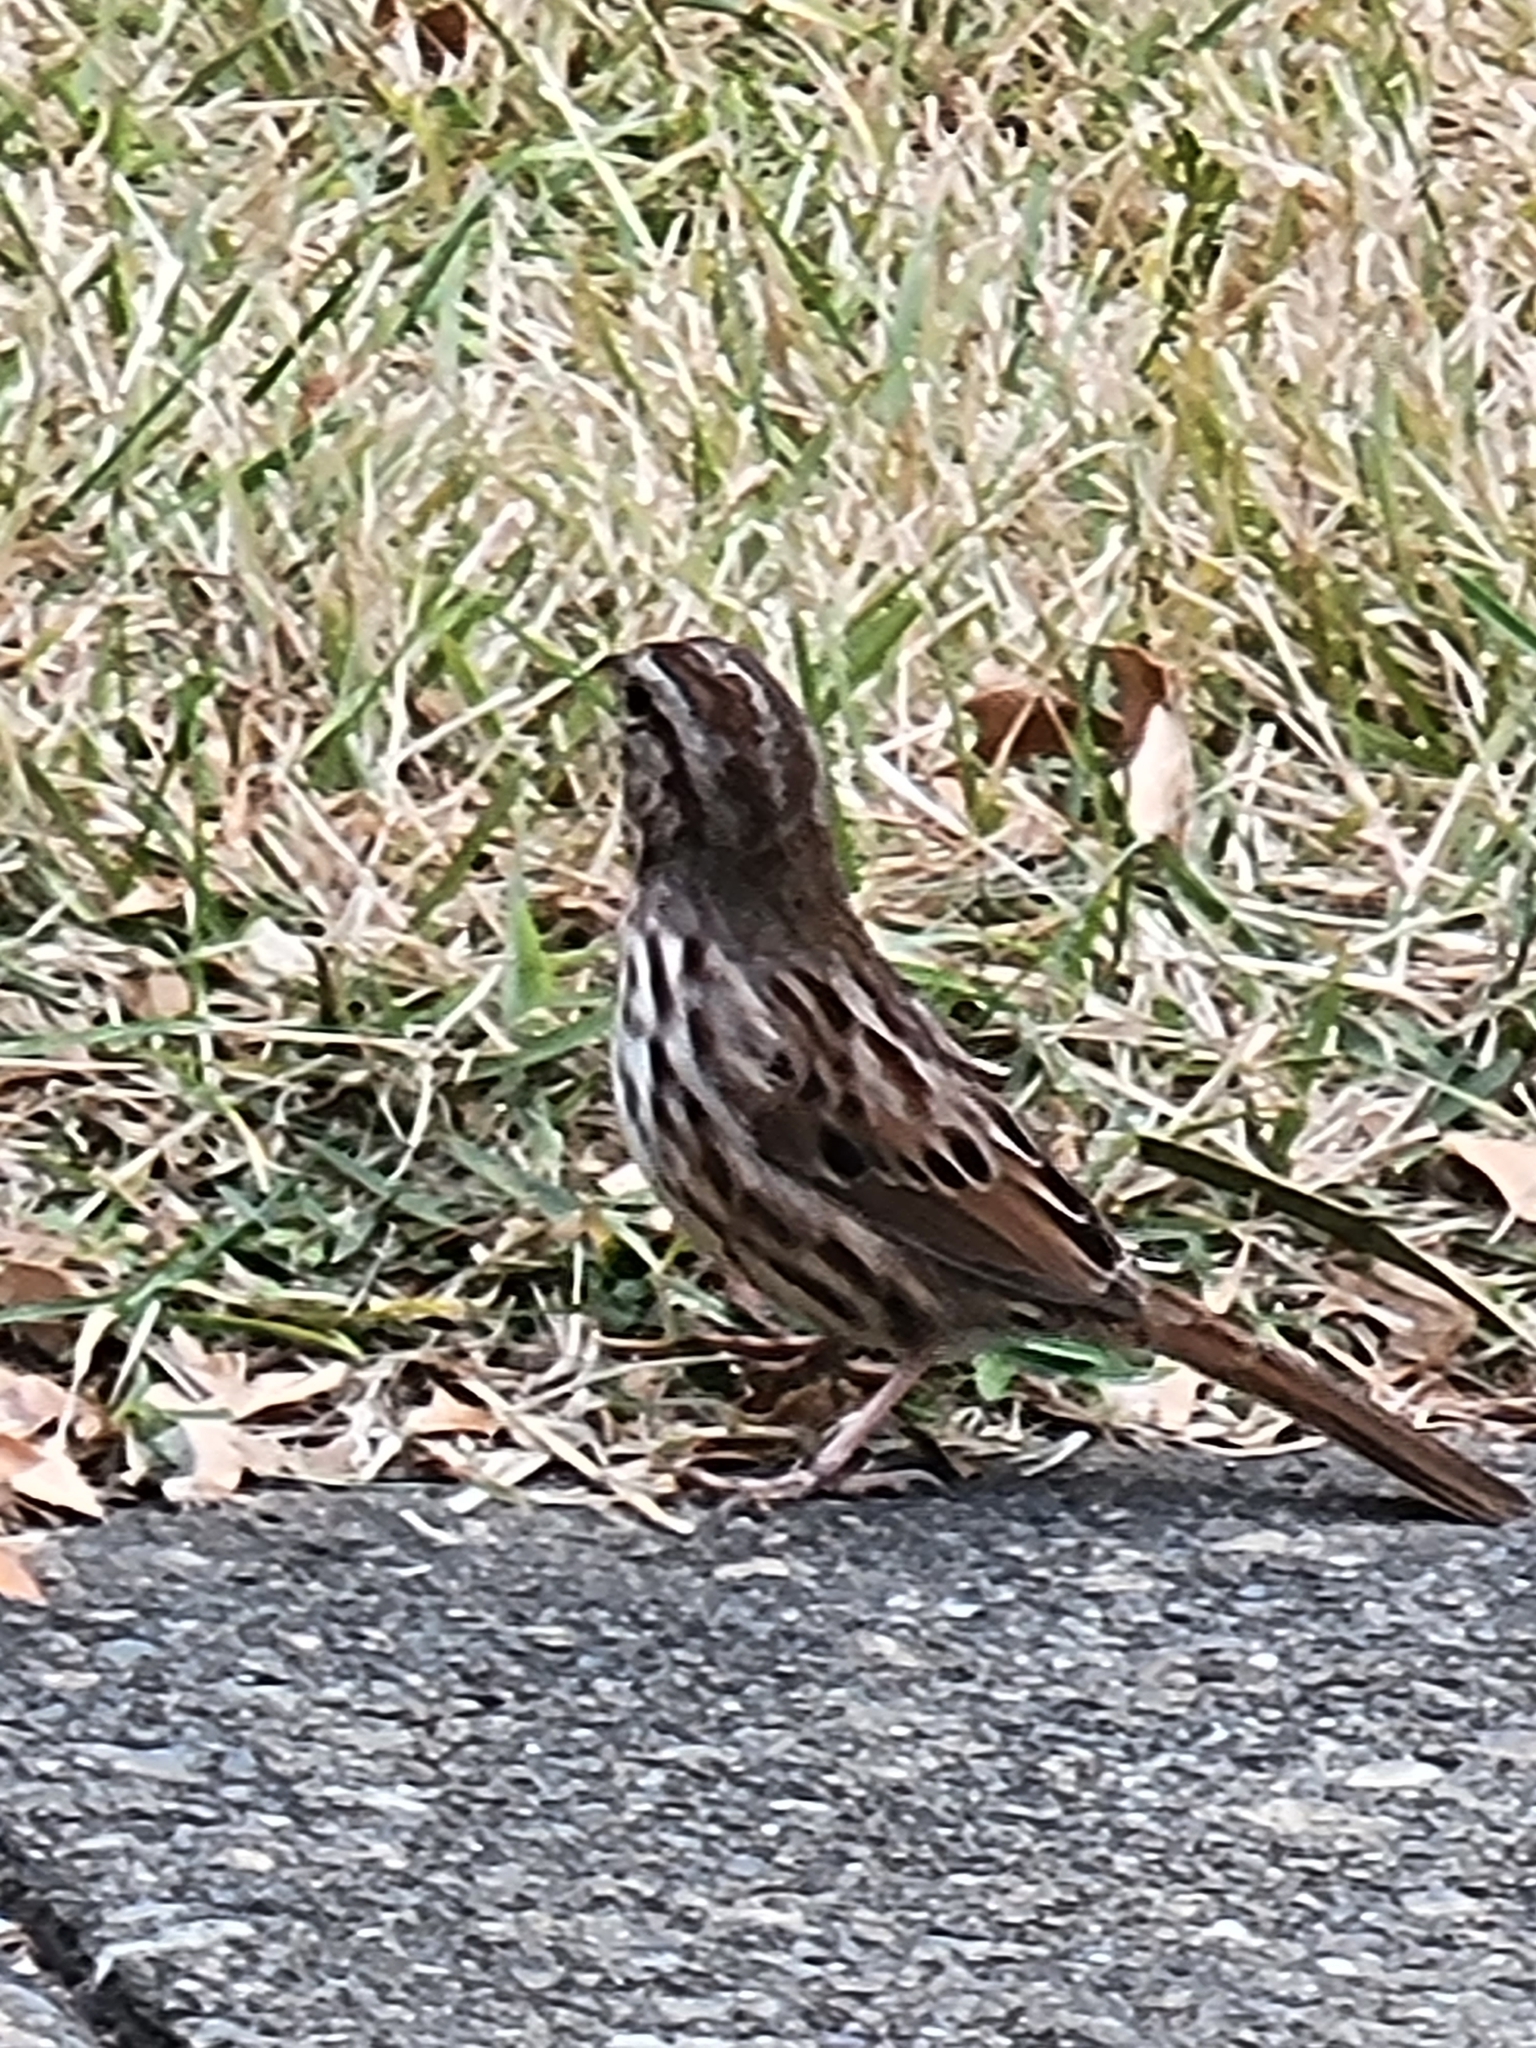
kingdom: Animalia
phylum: Chordata
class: Aves
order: Passeriformes
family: Passerellidae
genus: Melospiza
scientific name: Melospiza melodia
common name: Song sparrow
